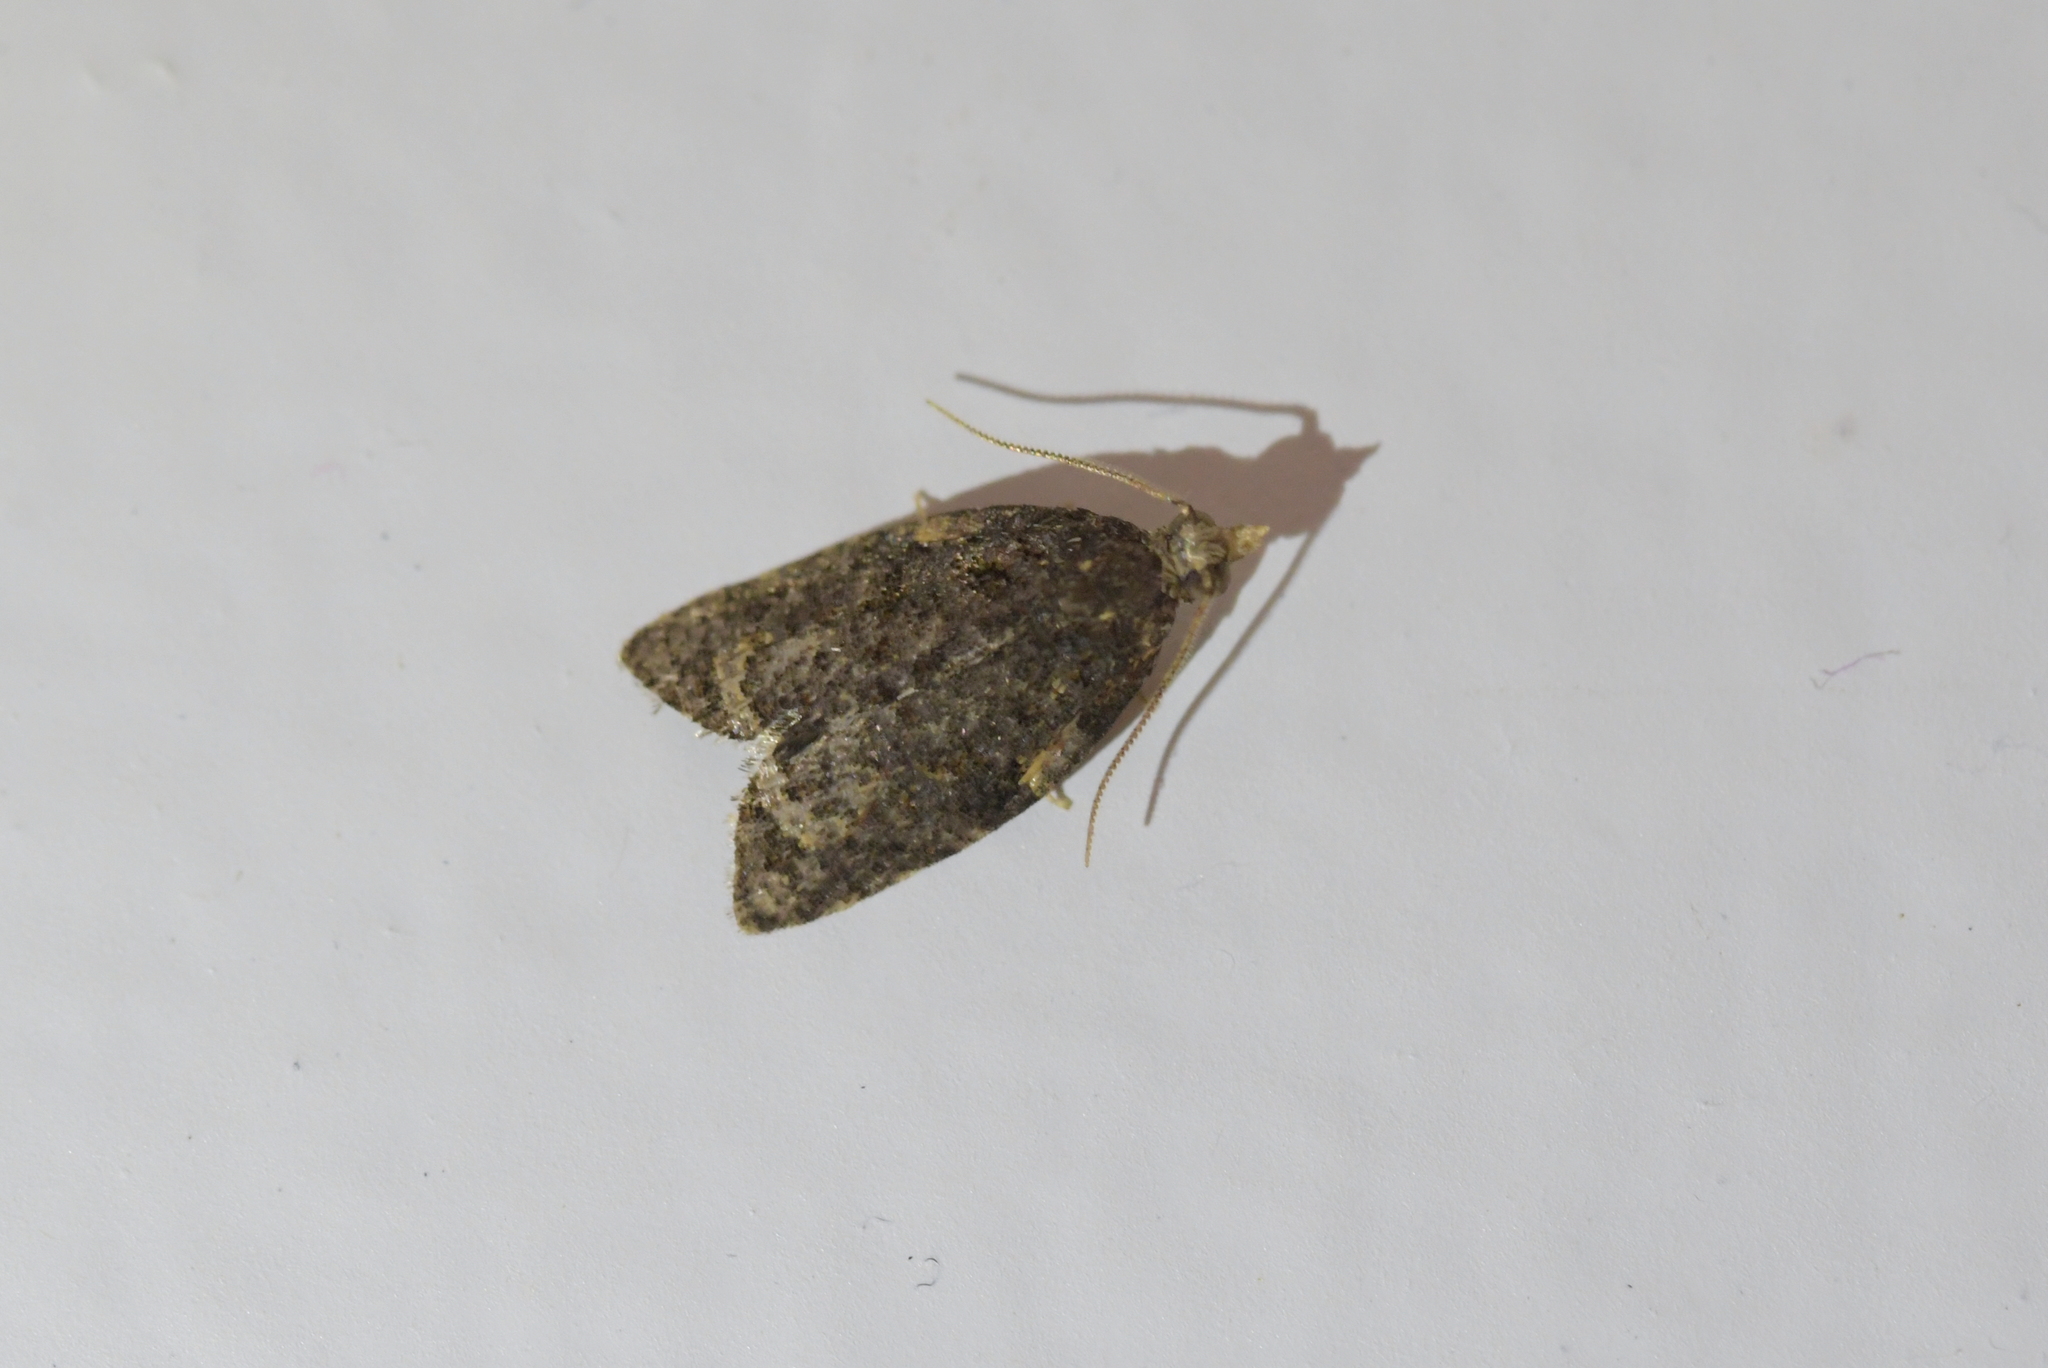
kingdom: Animalia
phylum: Arthropoda
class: Insecta
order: Lepidoptera
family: Tortricidae
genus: Capua
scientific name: Capua intractana
